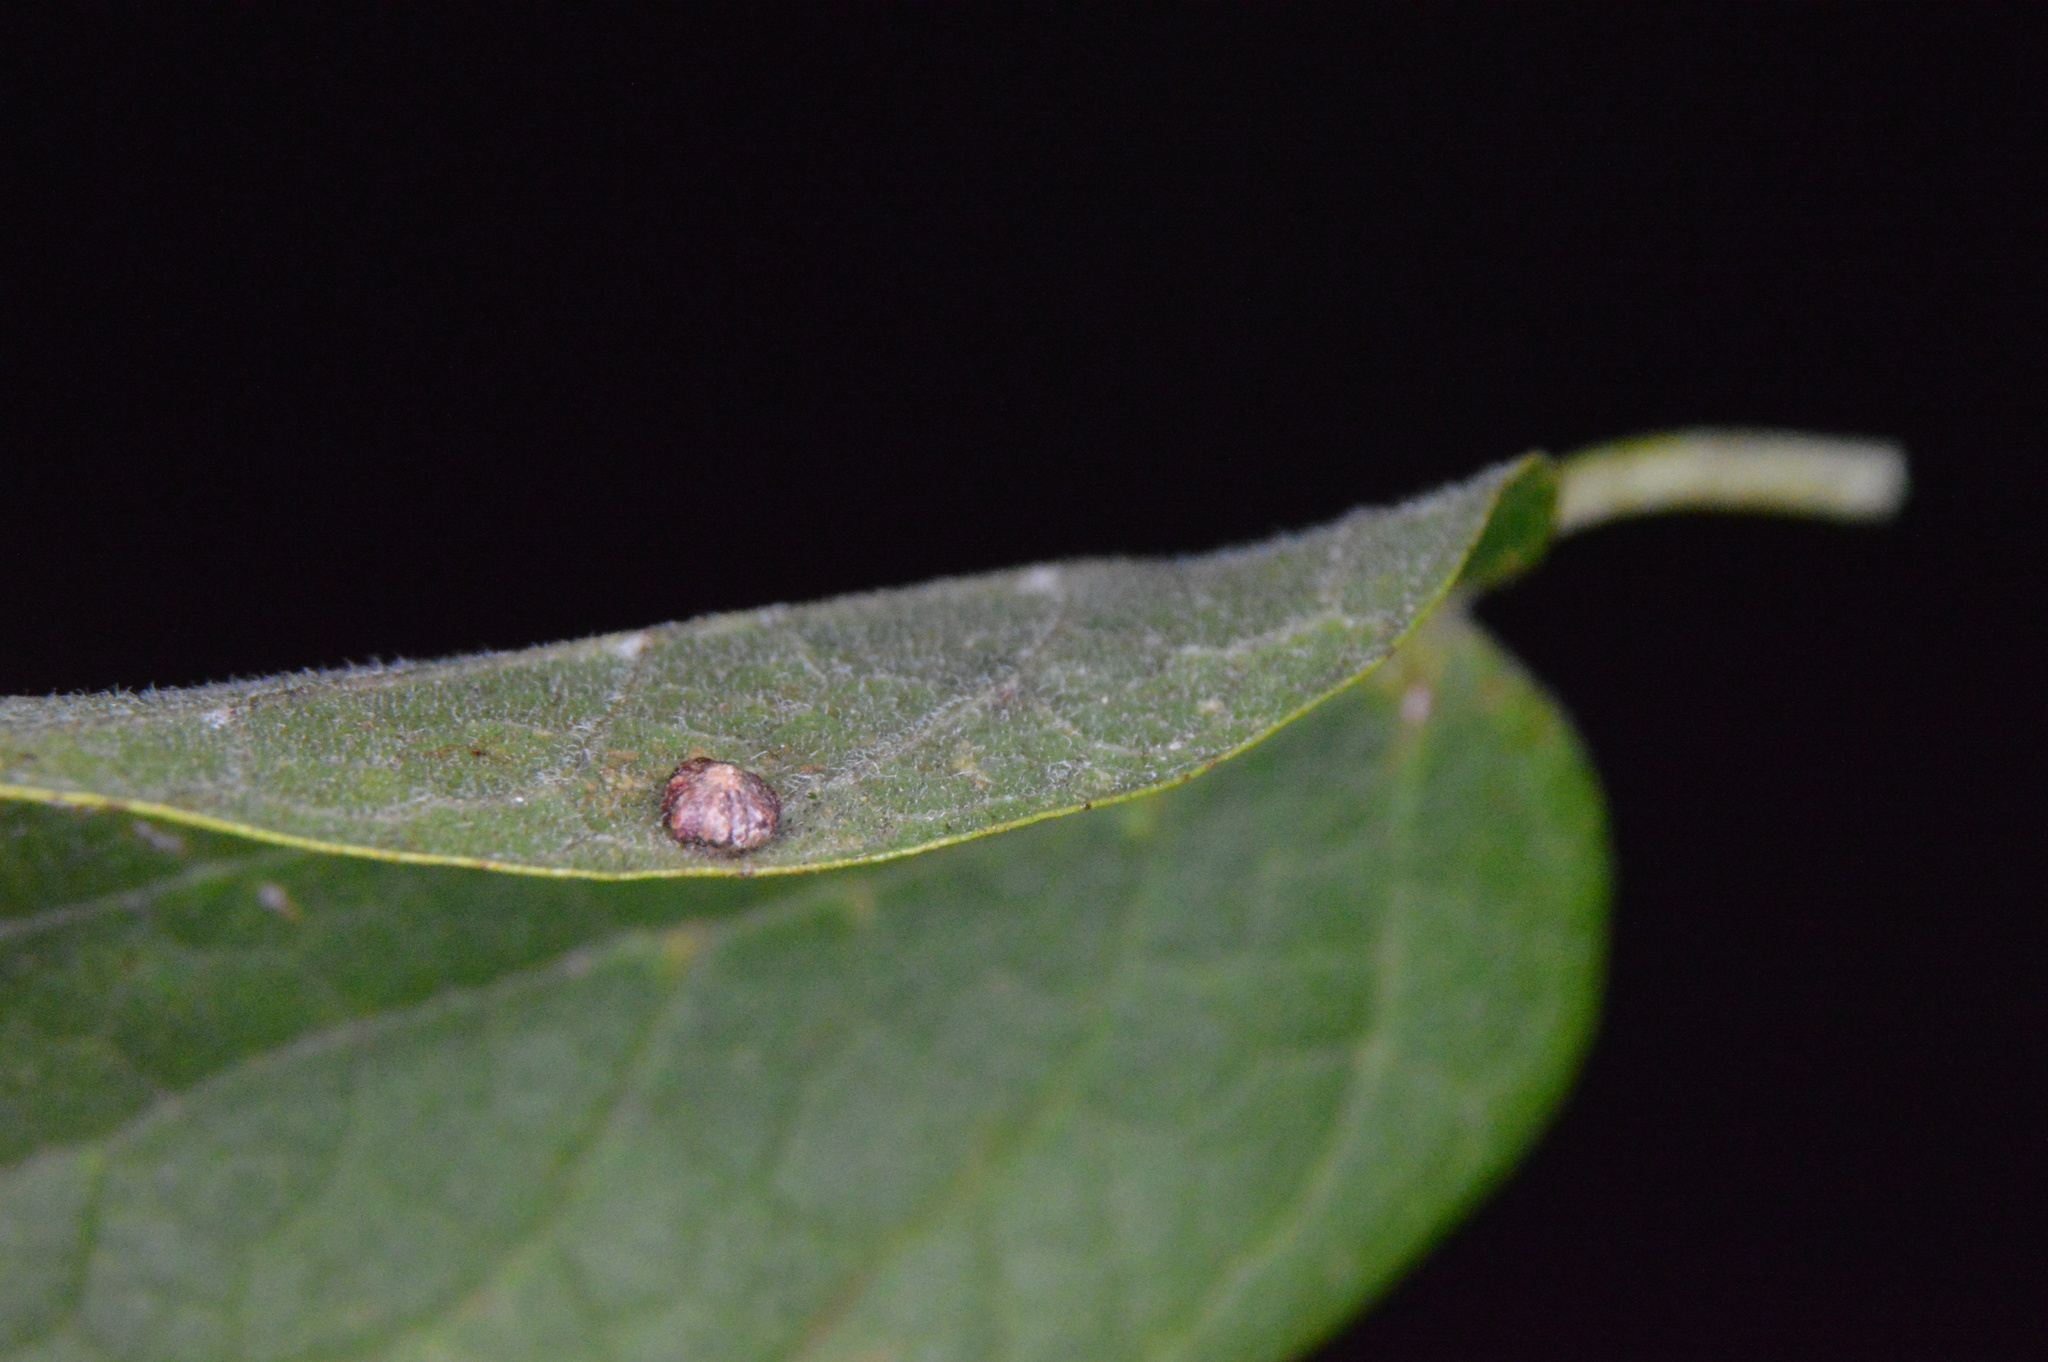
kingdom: Animalia
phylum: Arthropoda
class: Insecta
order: Diptera
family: Cecidomyiidae
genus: Celticecis
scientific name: Celticecis capsularis
